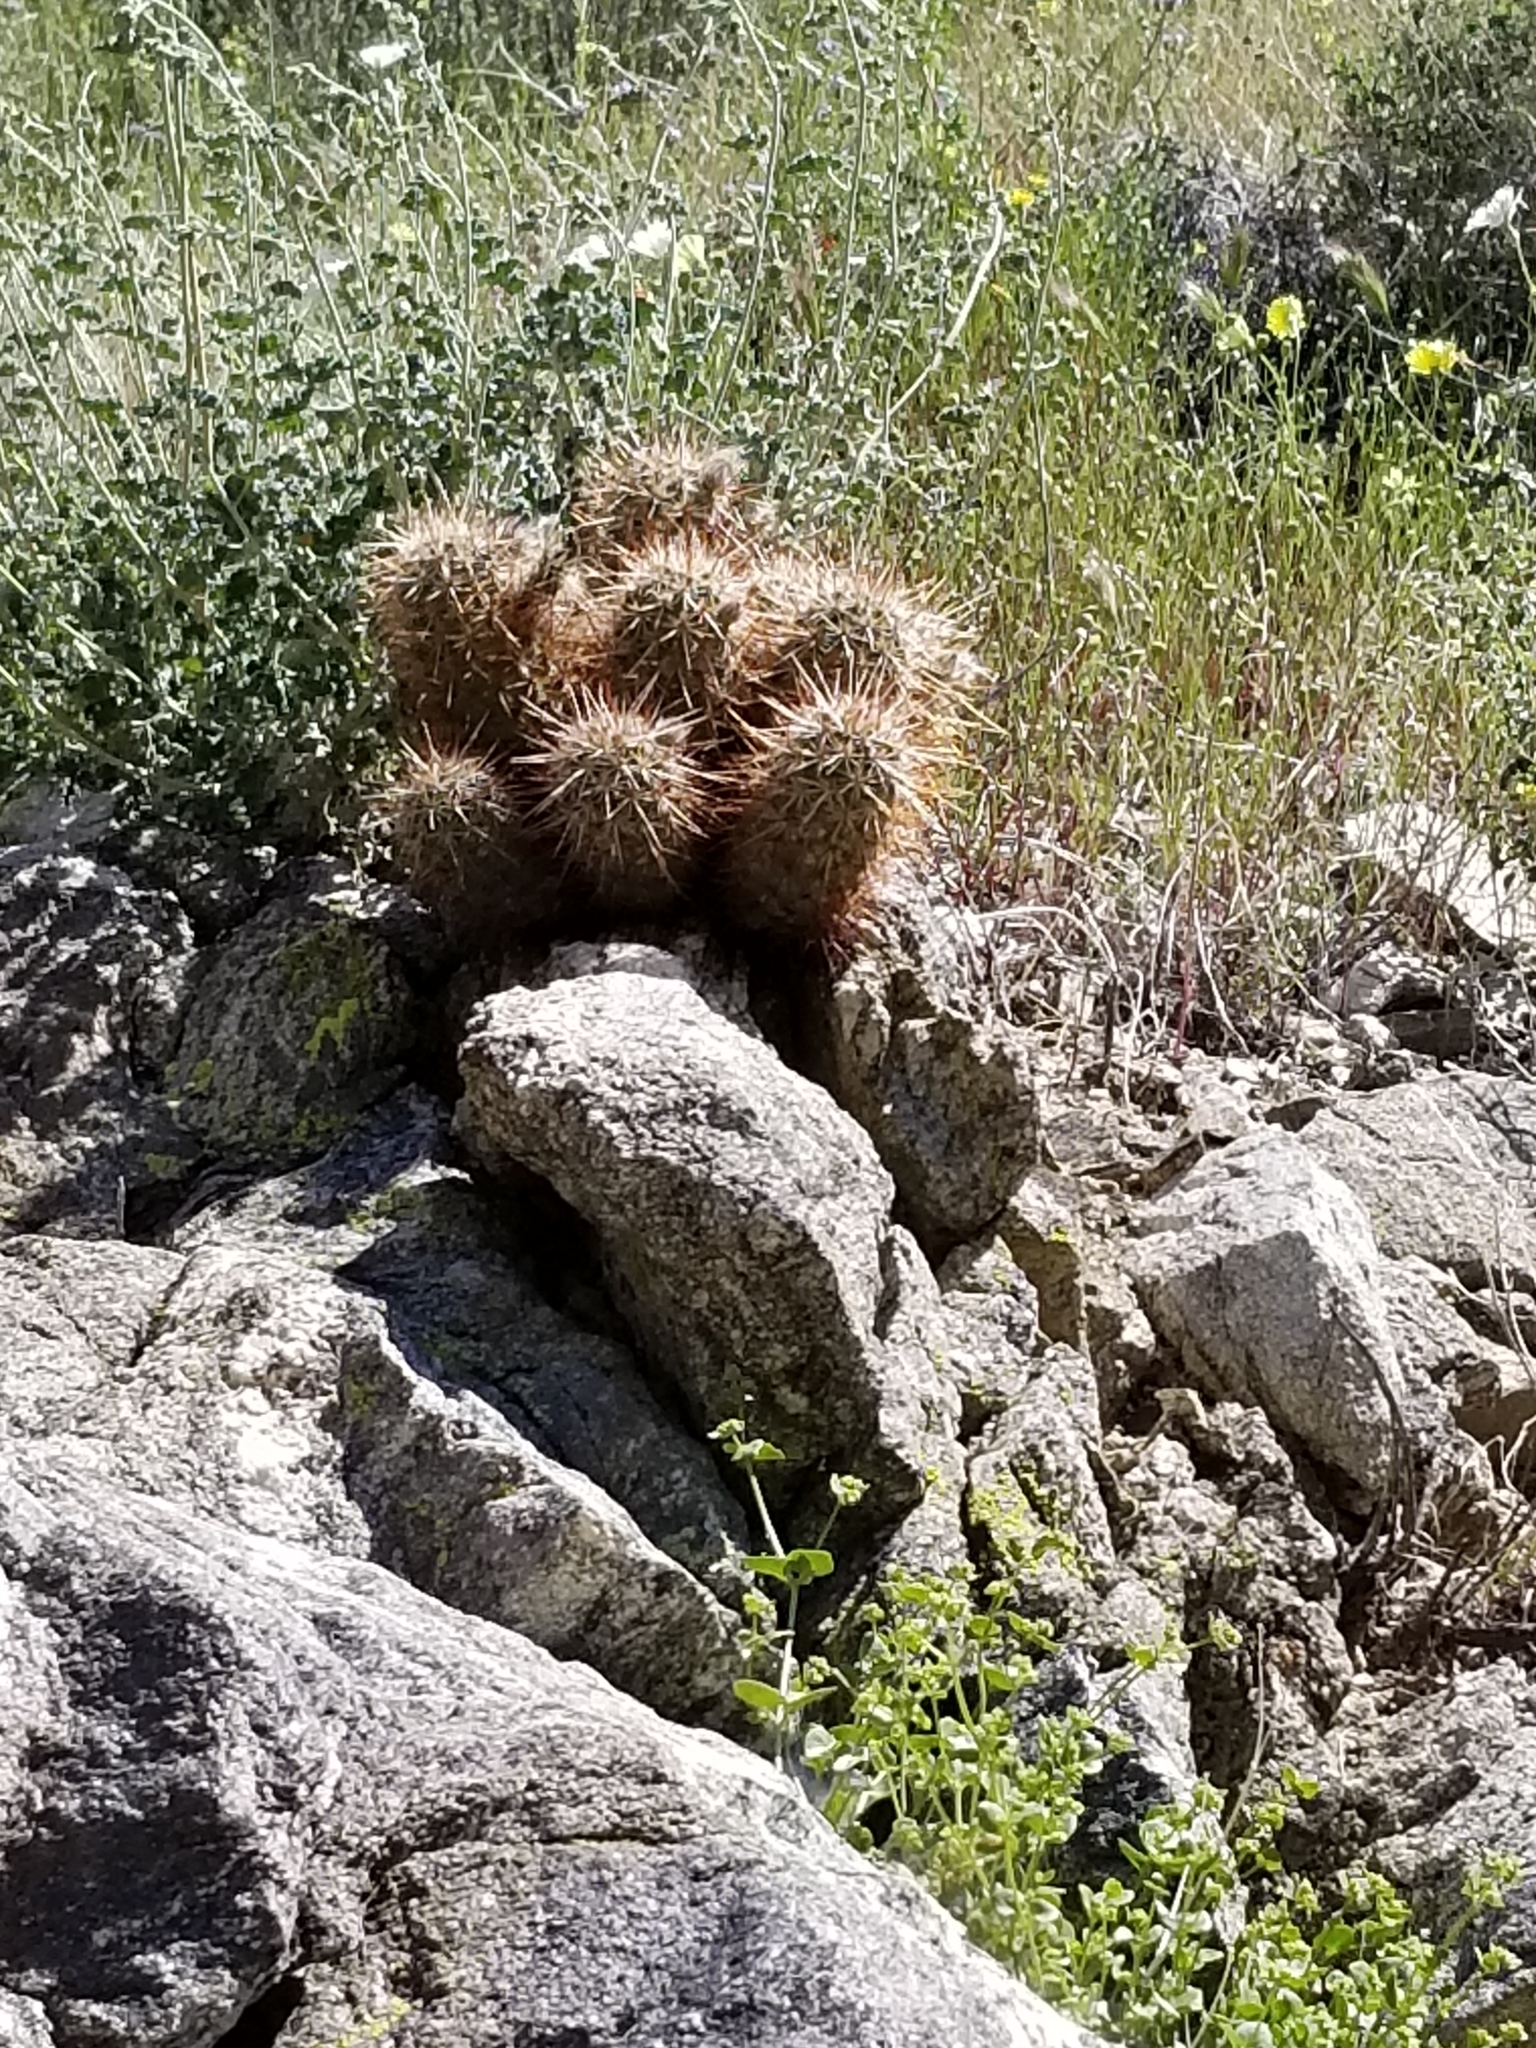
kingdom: Plantae
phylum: Tracheophyta
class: Magnoliopsida
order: Caryophyllales
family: Cactaceae
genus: Echinocereus
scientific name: Echinocereus engelmannii
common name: Engelmann's hedgehog cactus
